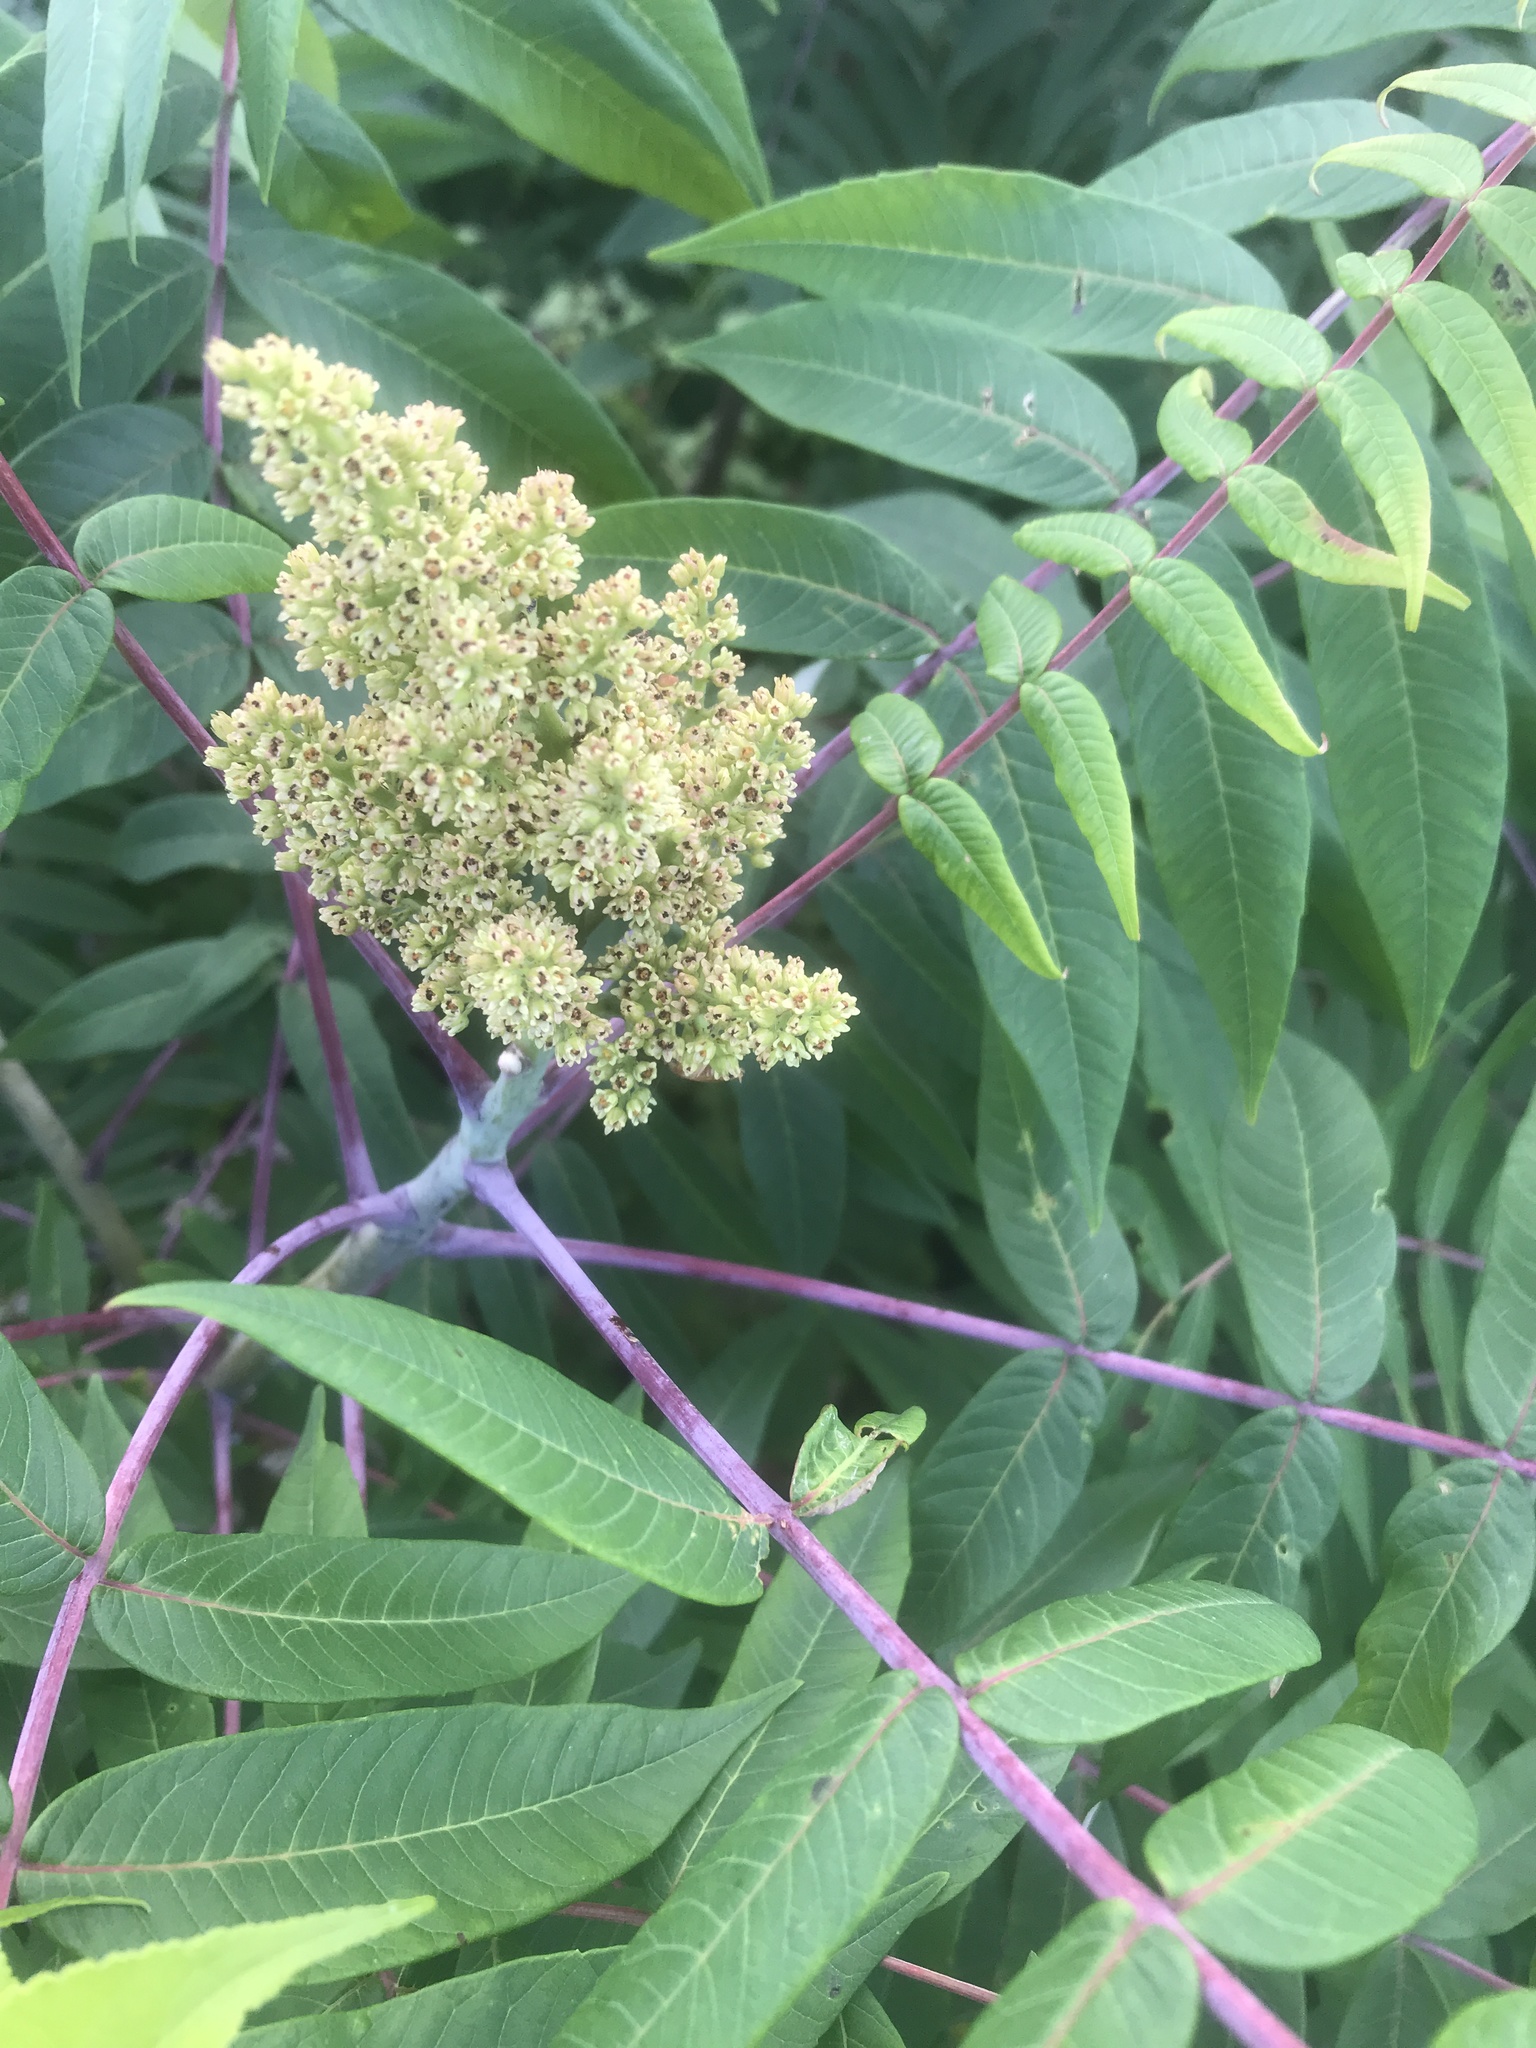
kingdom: Plantae
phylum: Tracheophyta
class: Magnoliopsida
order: Sapindales
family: Anacardiaceae
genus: Rhus
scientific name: Rhus glabra
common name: Scarlet sumac
